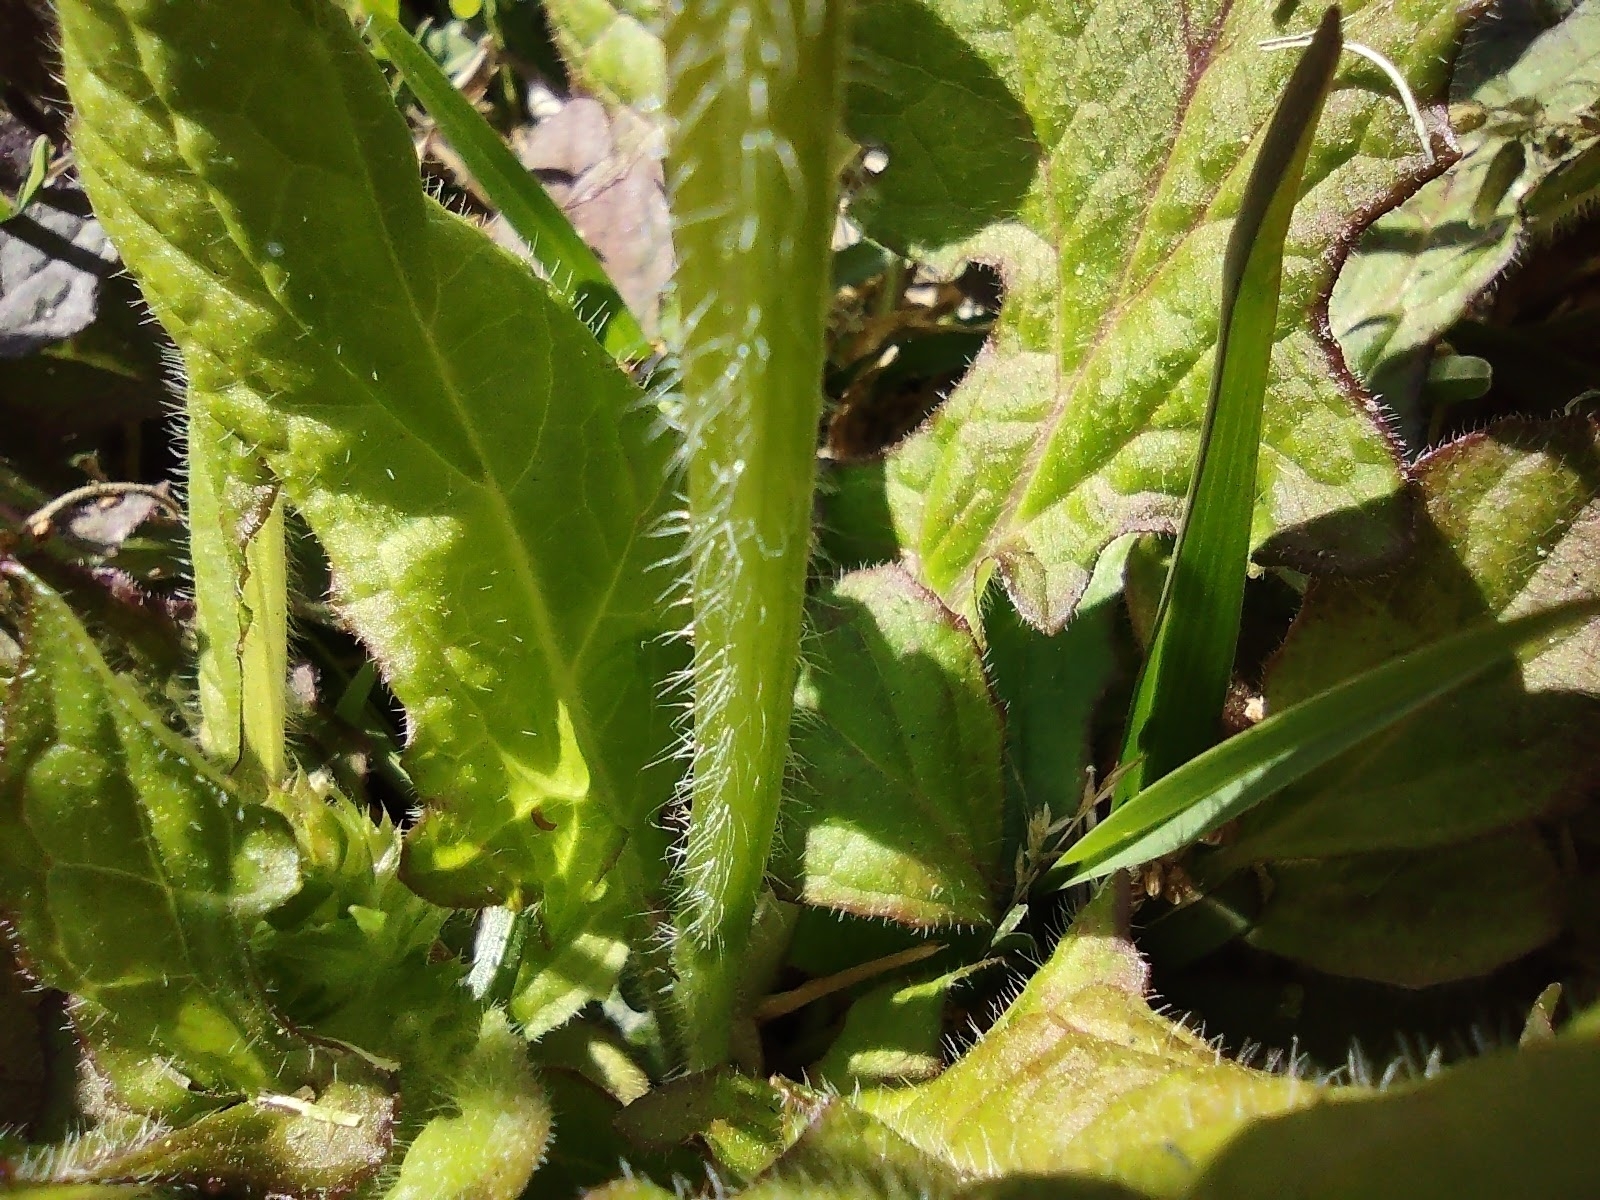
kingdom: Plantae
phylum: Tracheophyta
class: Magnoliopsida
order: Lamiales
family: Lamiaceae
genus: Salvia
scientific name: Salvia lyrata
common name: Cancerweed
